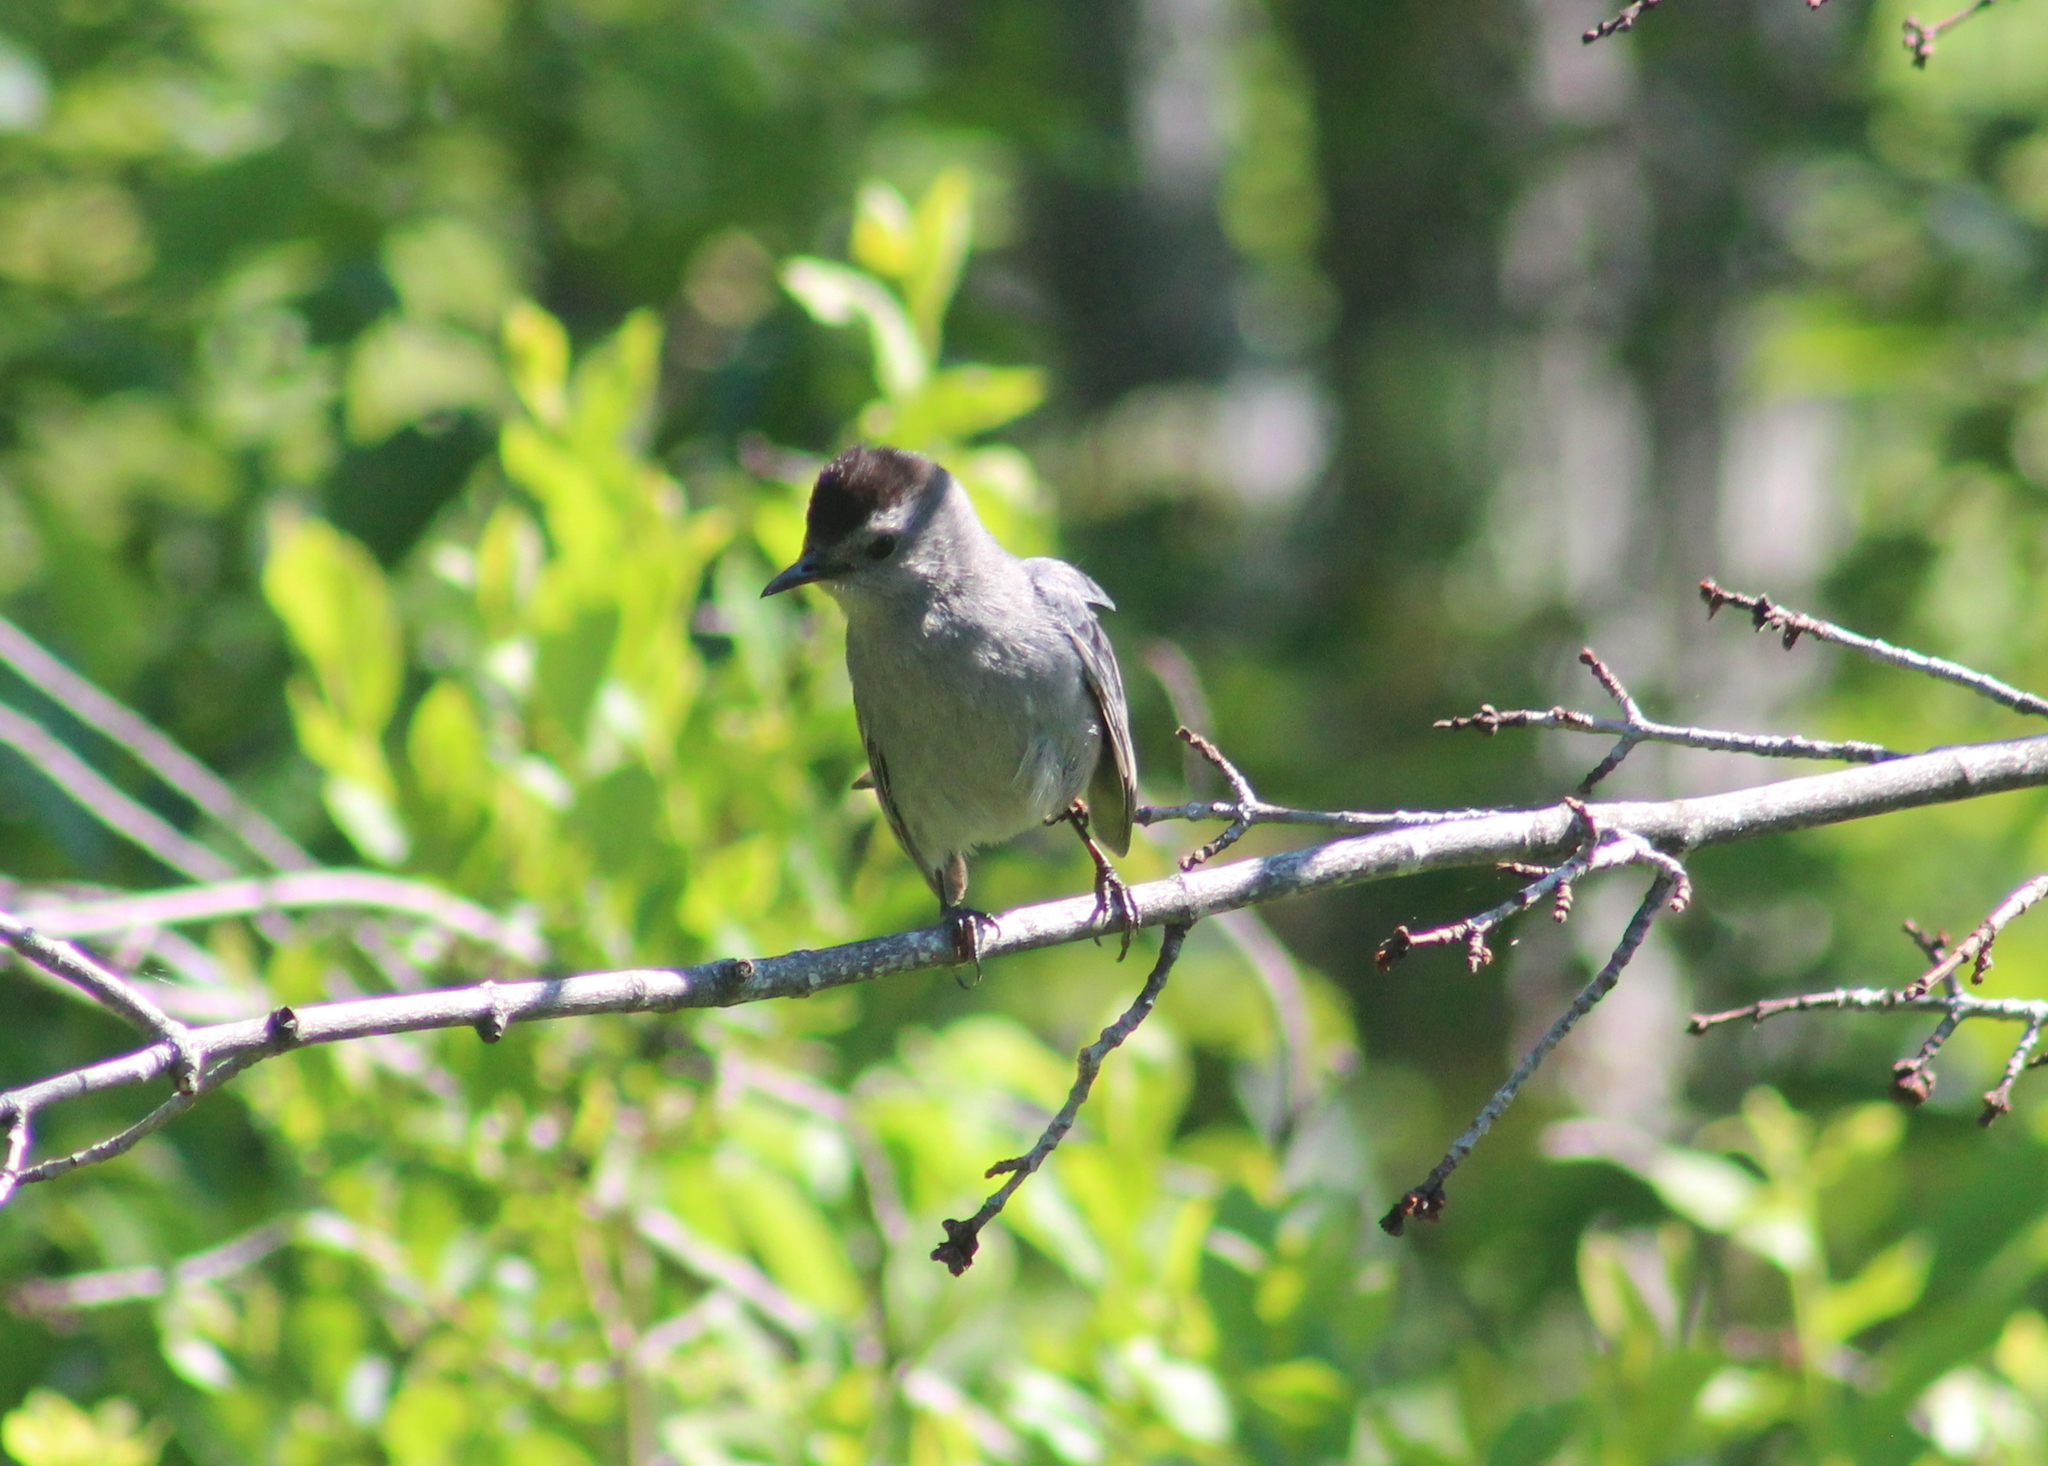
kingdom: Animalia
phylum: Chordata
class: Aves
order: Passeriformes
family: Mimidae
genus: Dumetella
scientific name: Dumetella carolinensis
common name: Gray catbird
